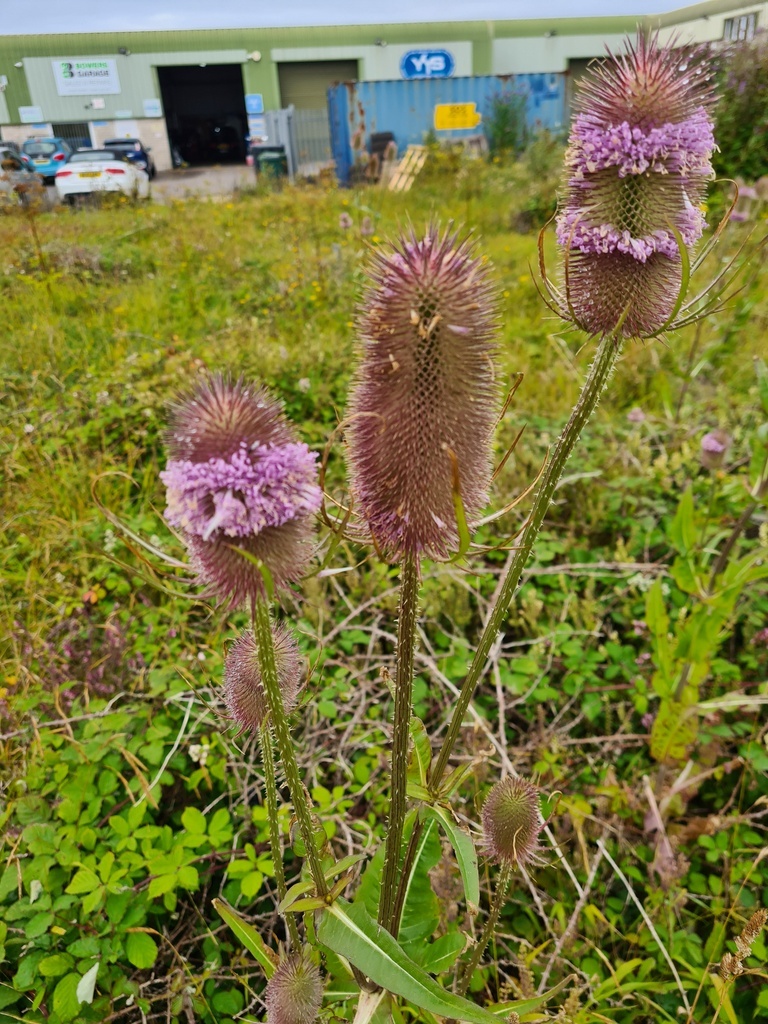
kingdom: Plantae
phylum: Tracheophyta
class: Magnoliopsida
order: Dipsacales
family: Caprifoliaceae
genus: Dipsacus
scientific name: Dipsacus fullonum
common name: Teasel
